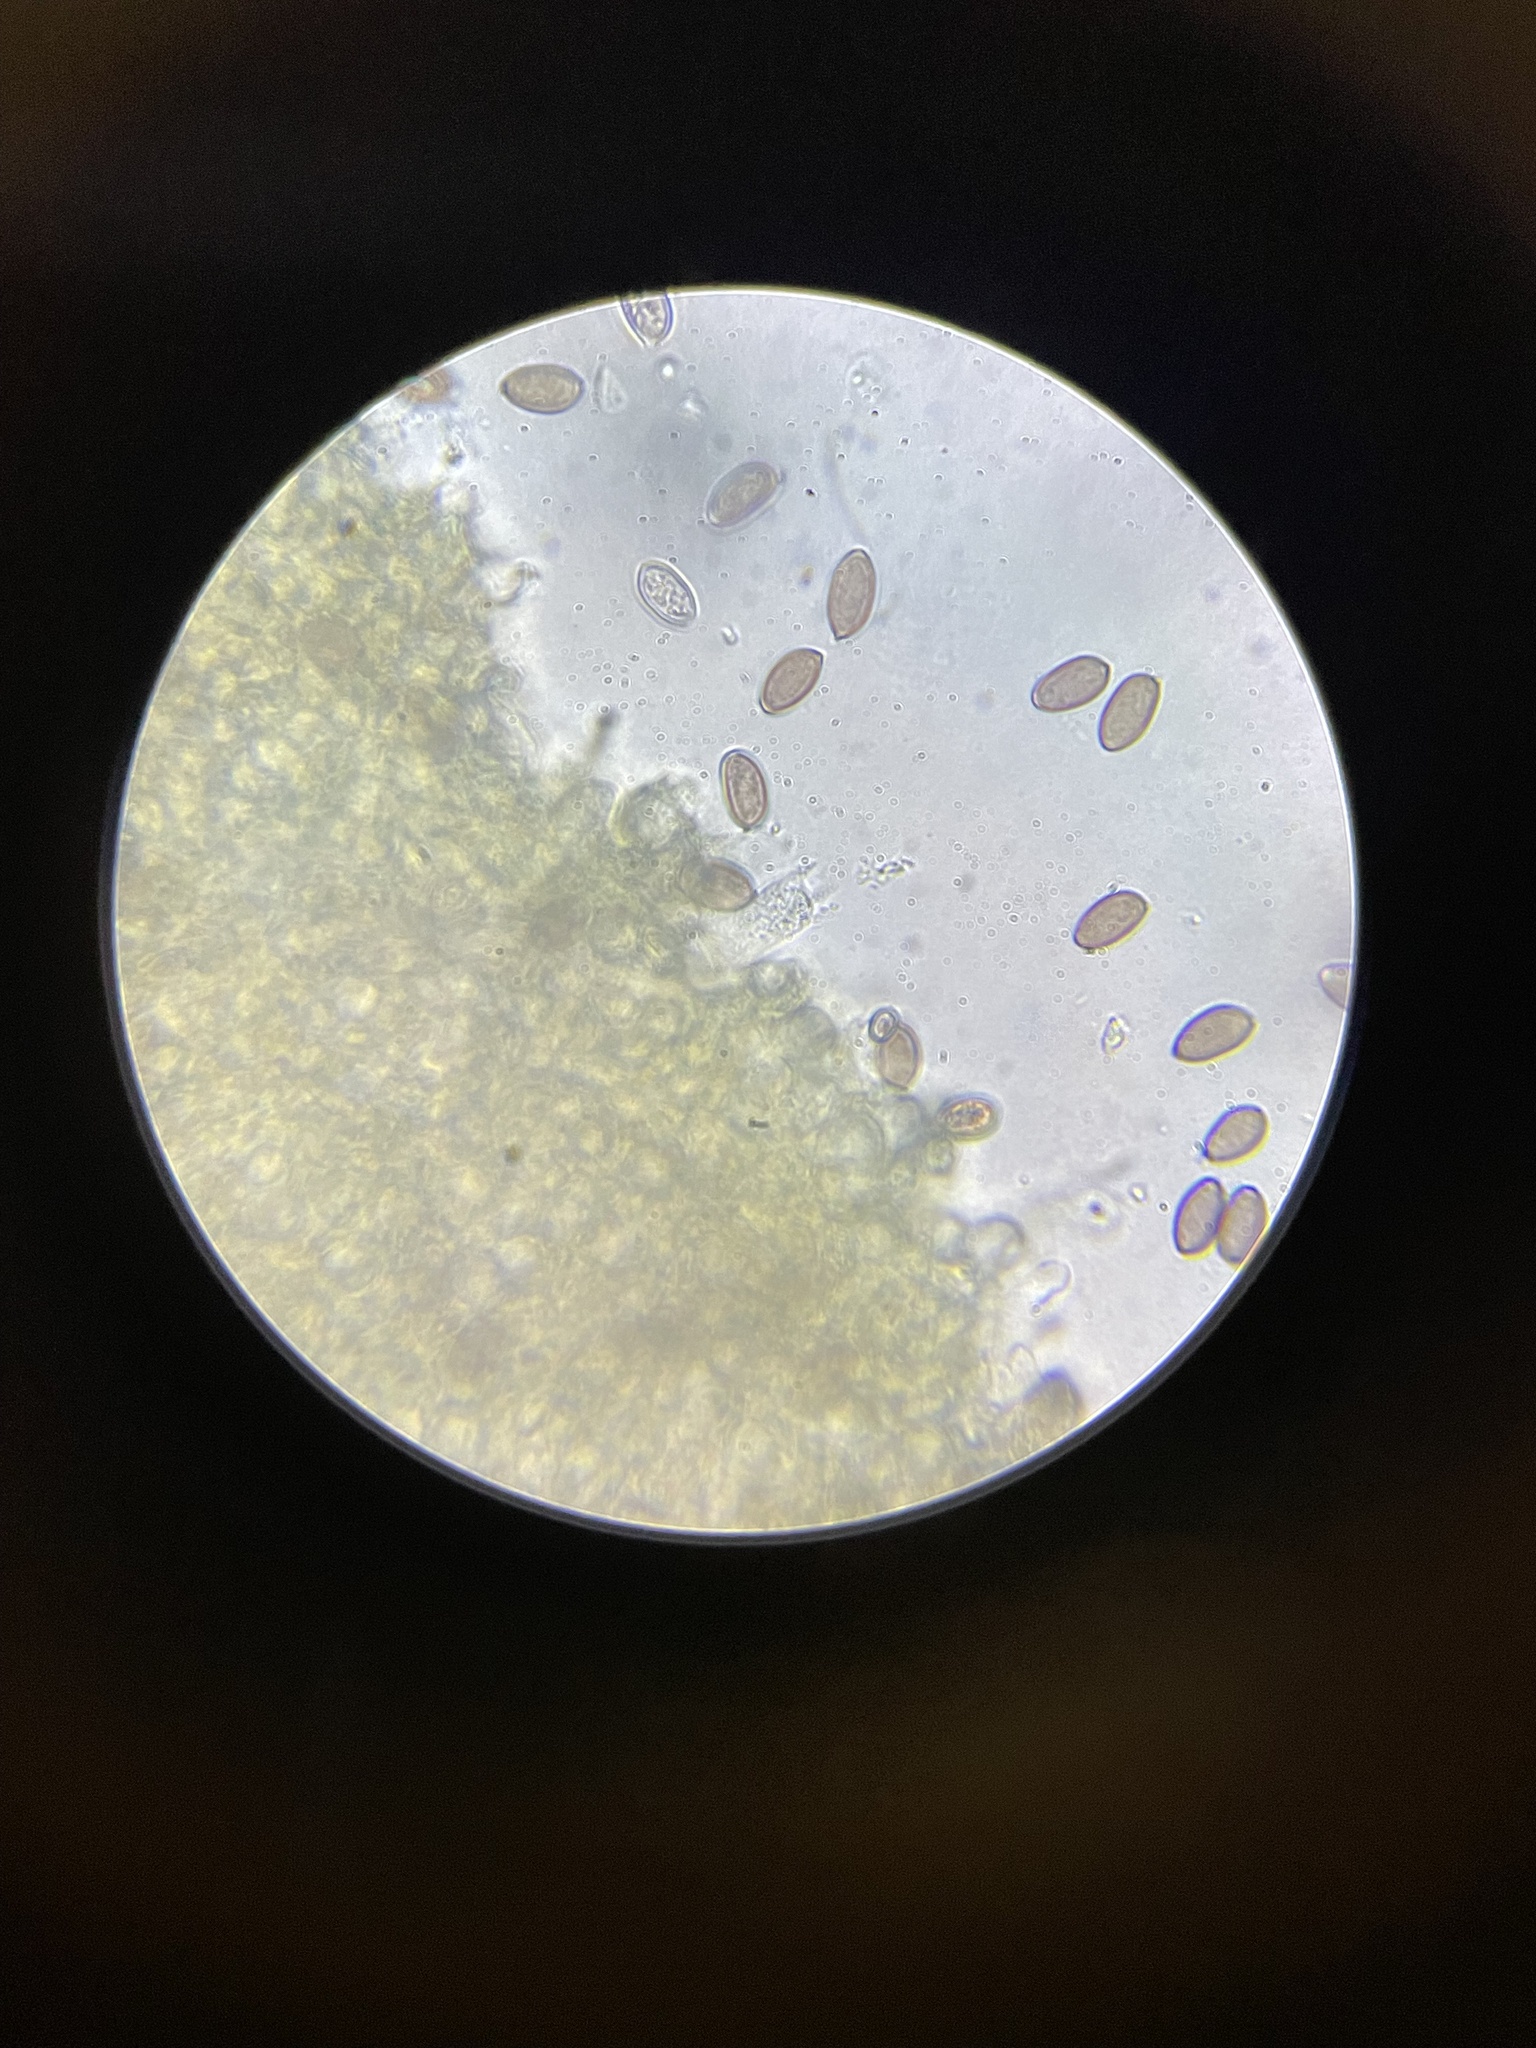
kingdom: Fungi
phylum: Basidiomycota
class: Agaricomycetes
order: Agaricales
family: Hymenogastraceae
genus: Psilocybe
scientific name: Psilocybe cyanescens
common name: Blueleg brownie
